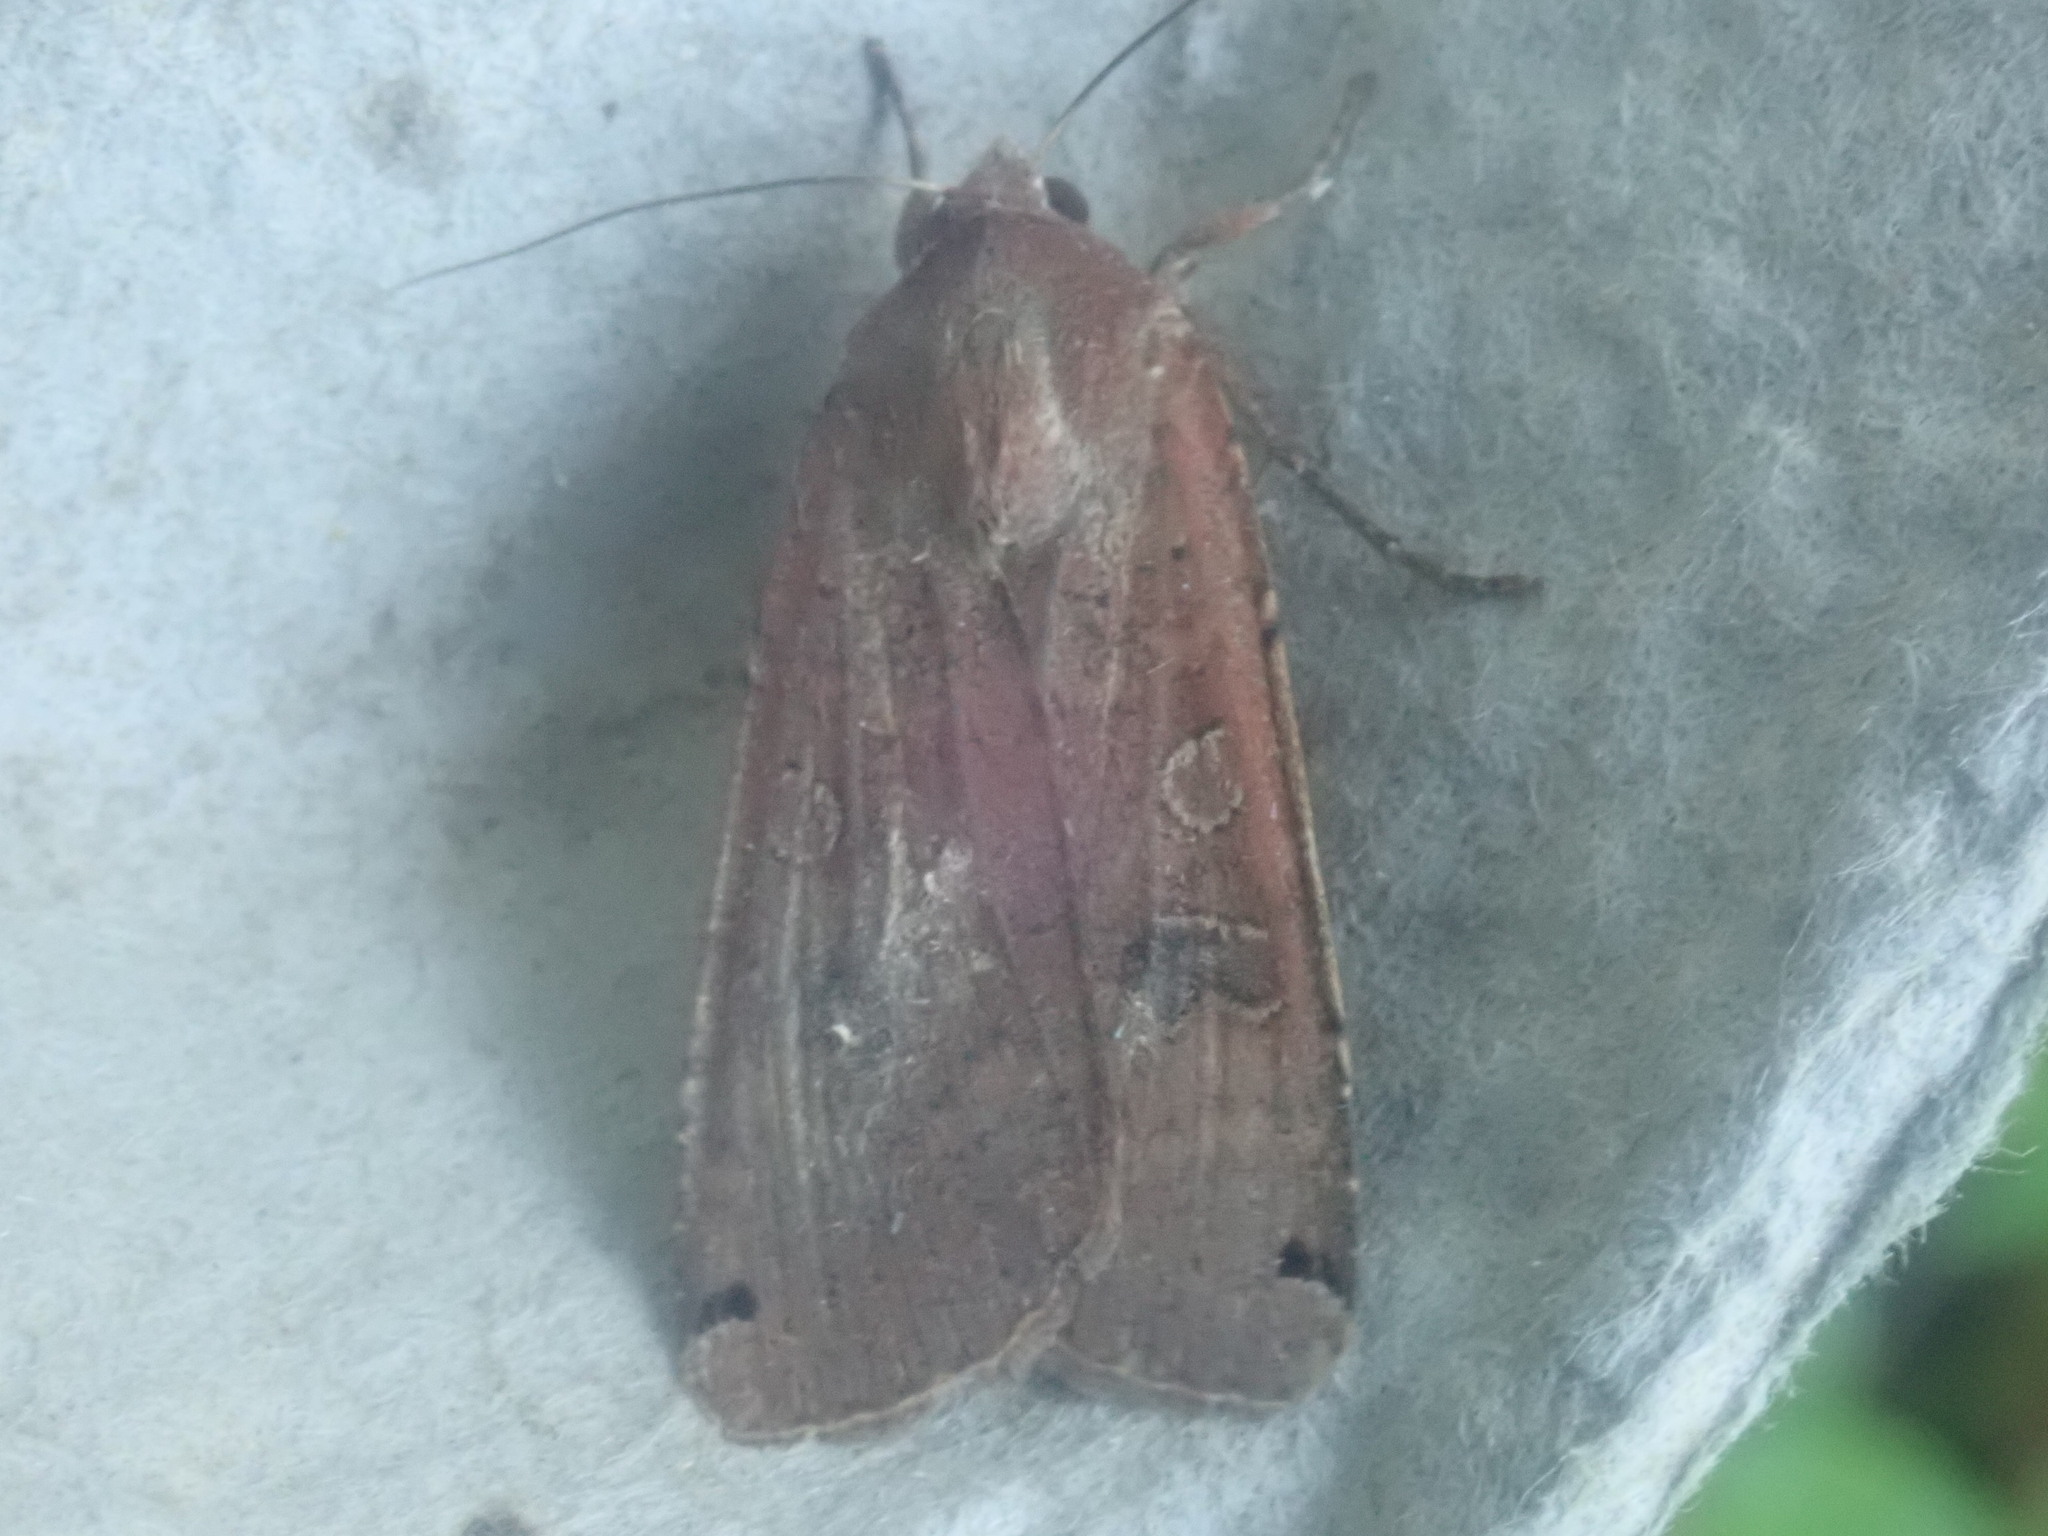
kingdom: Animalia
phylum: Arthropoda
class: Insecta
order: Lepidoptera
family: Noctuidae
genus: Noctua
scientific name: Noctua pronuba
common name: Large yellow underwing
